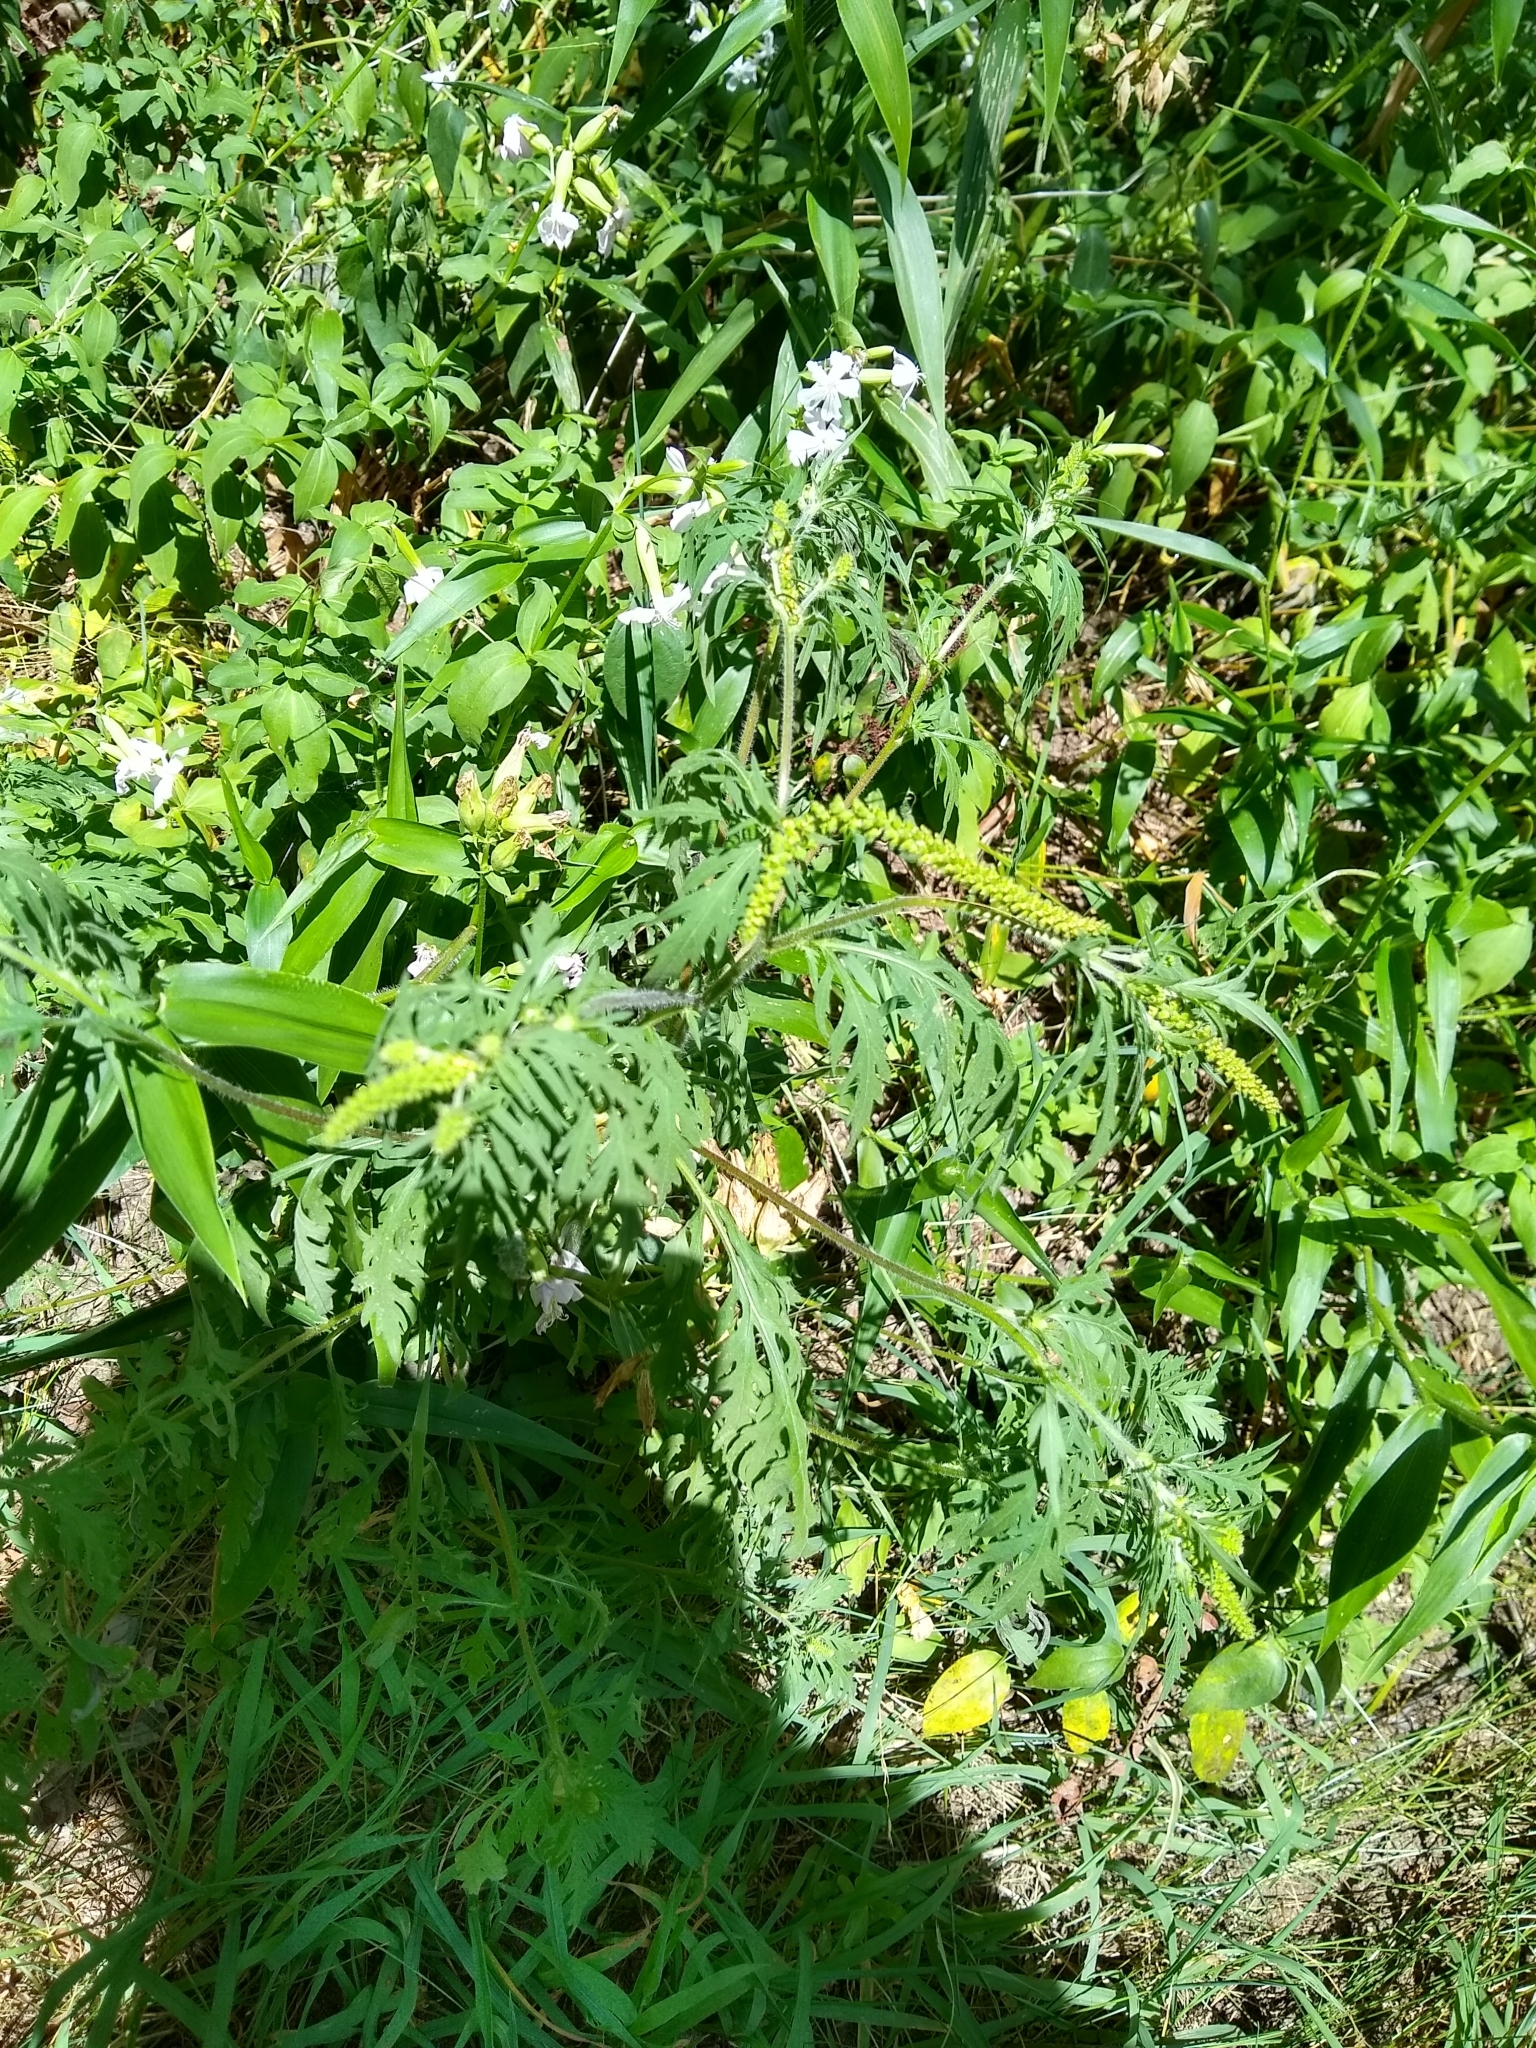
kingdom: Plantae
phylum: Tracheophyta
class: Magnoliopsida
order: Asterales
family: Asteraceae
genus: Ambrosia
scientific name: Ambrosia artemisiifolia
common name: Annual ragweed
